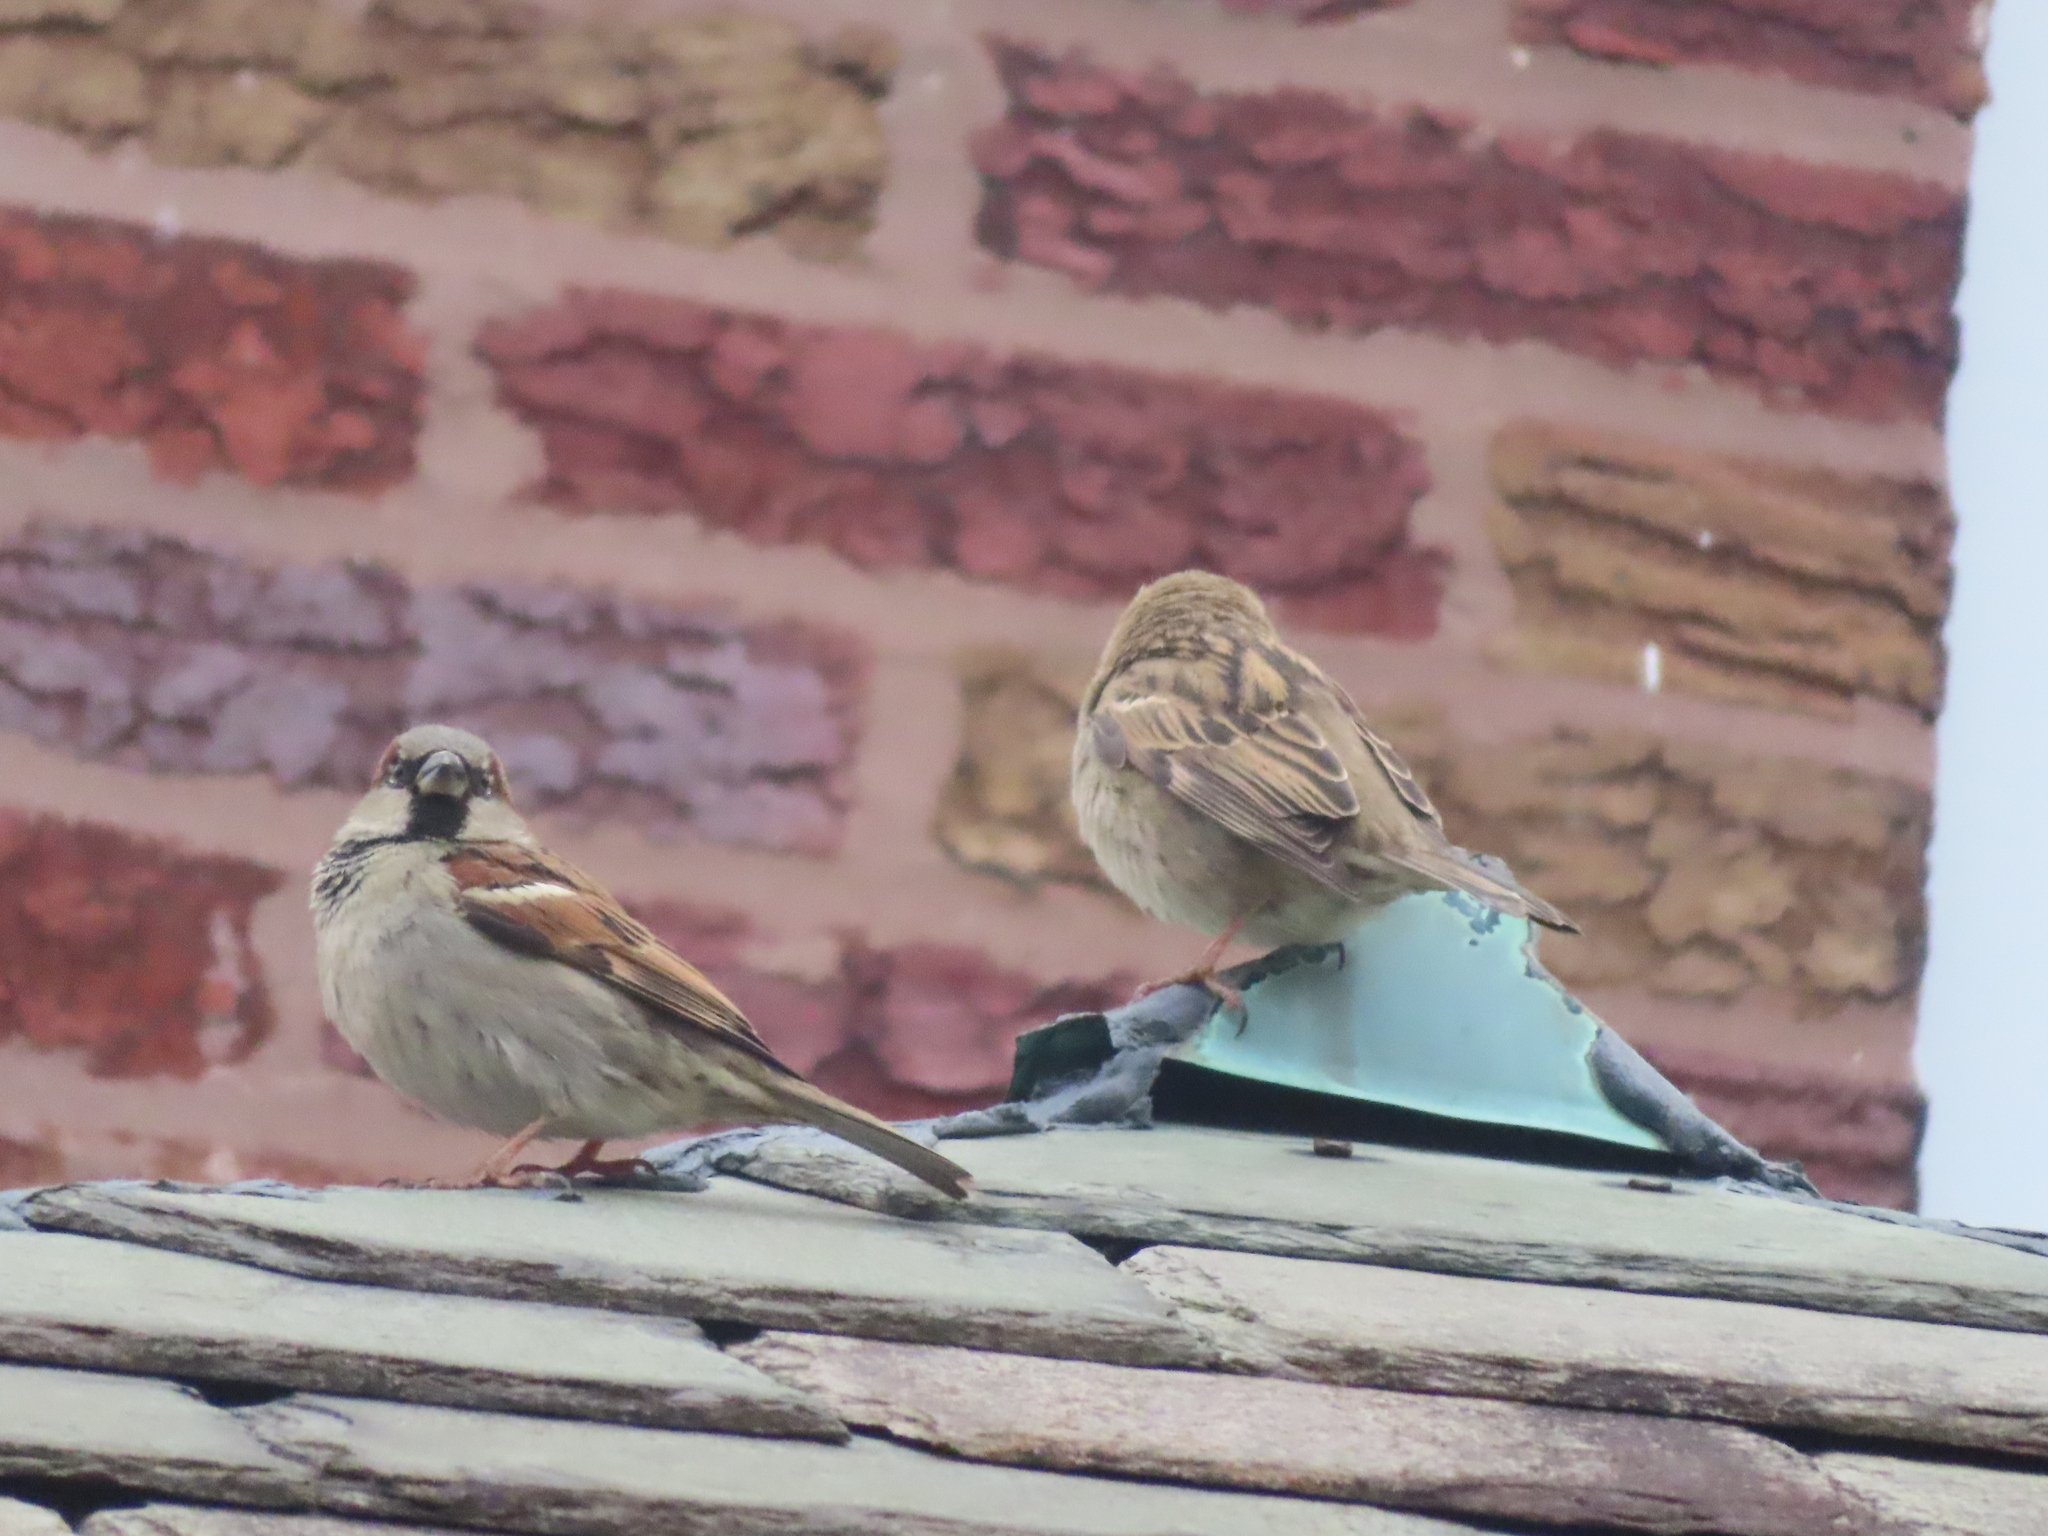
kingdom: Animalia
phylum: Chordata
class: Aves
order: Passeriformes
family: Passeridae
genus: Passer
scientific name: Passer domesticus
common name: House sparrow
